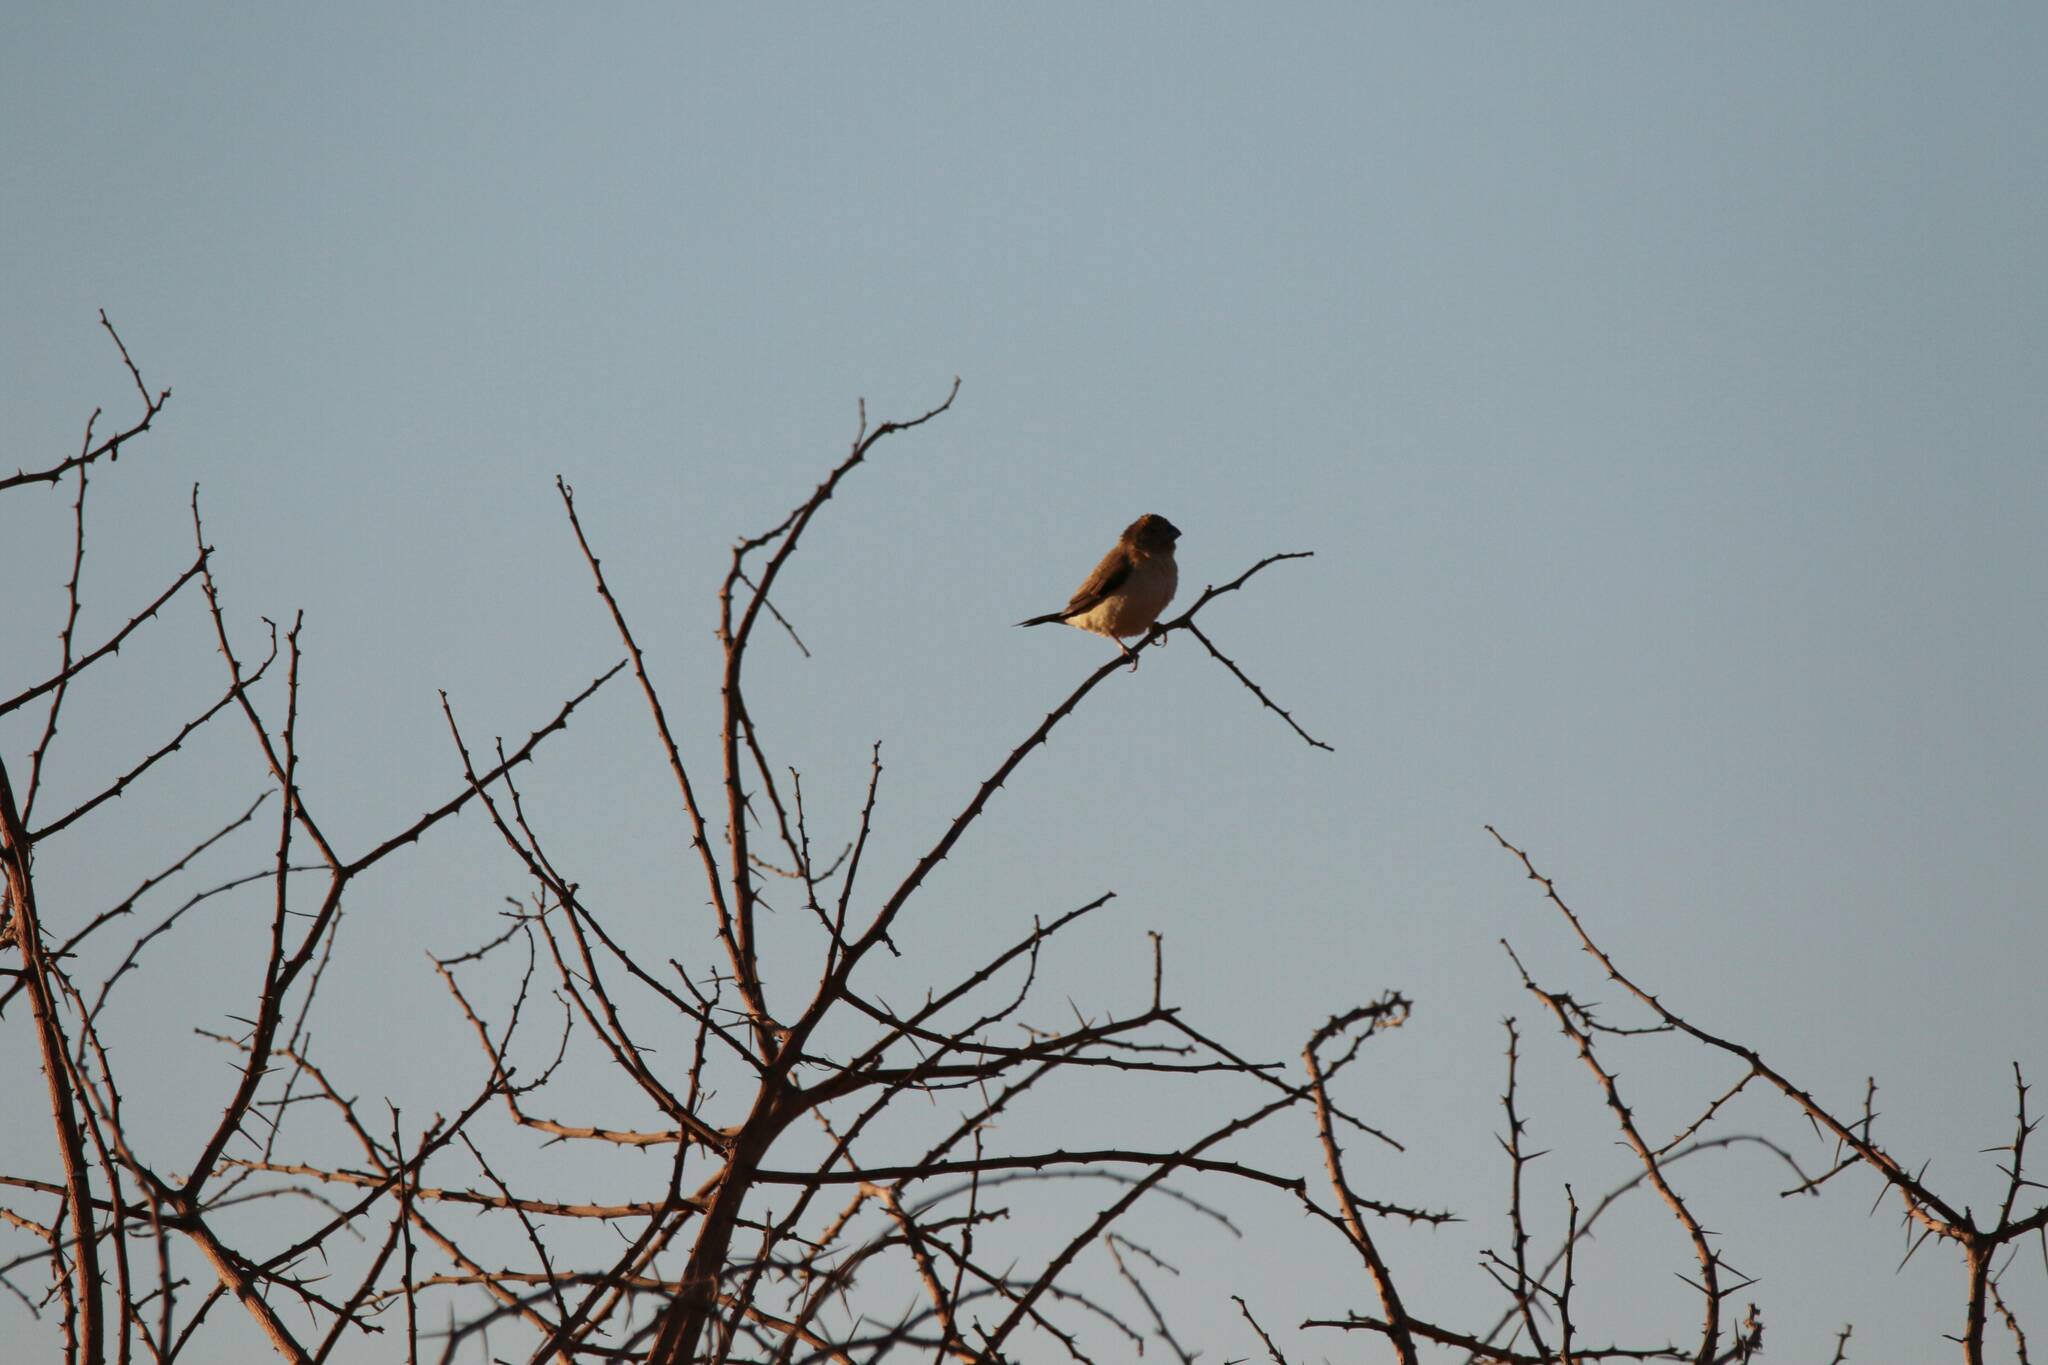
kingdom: Animalia
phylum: Chordata
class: Aves
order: Passeriformes
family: Estrildidae
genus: Euodice
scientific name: Euodice cantans
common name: African silverbill
